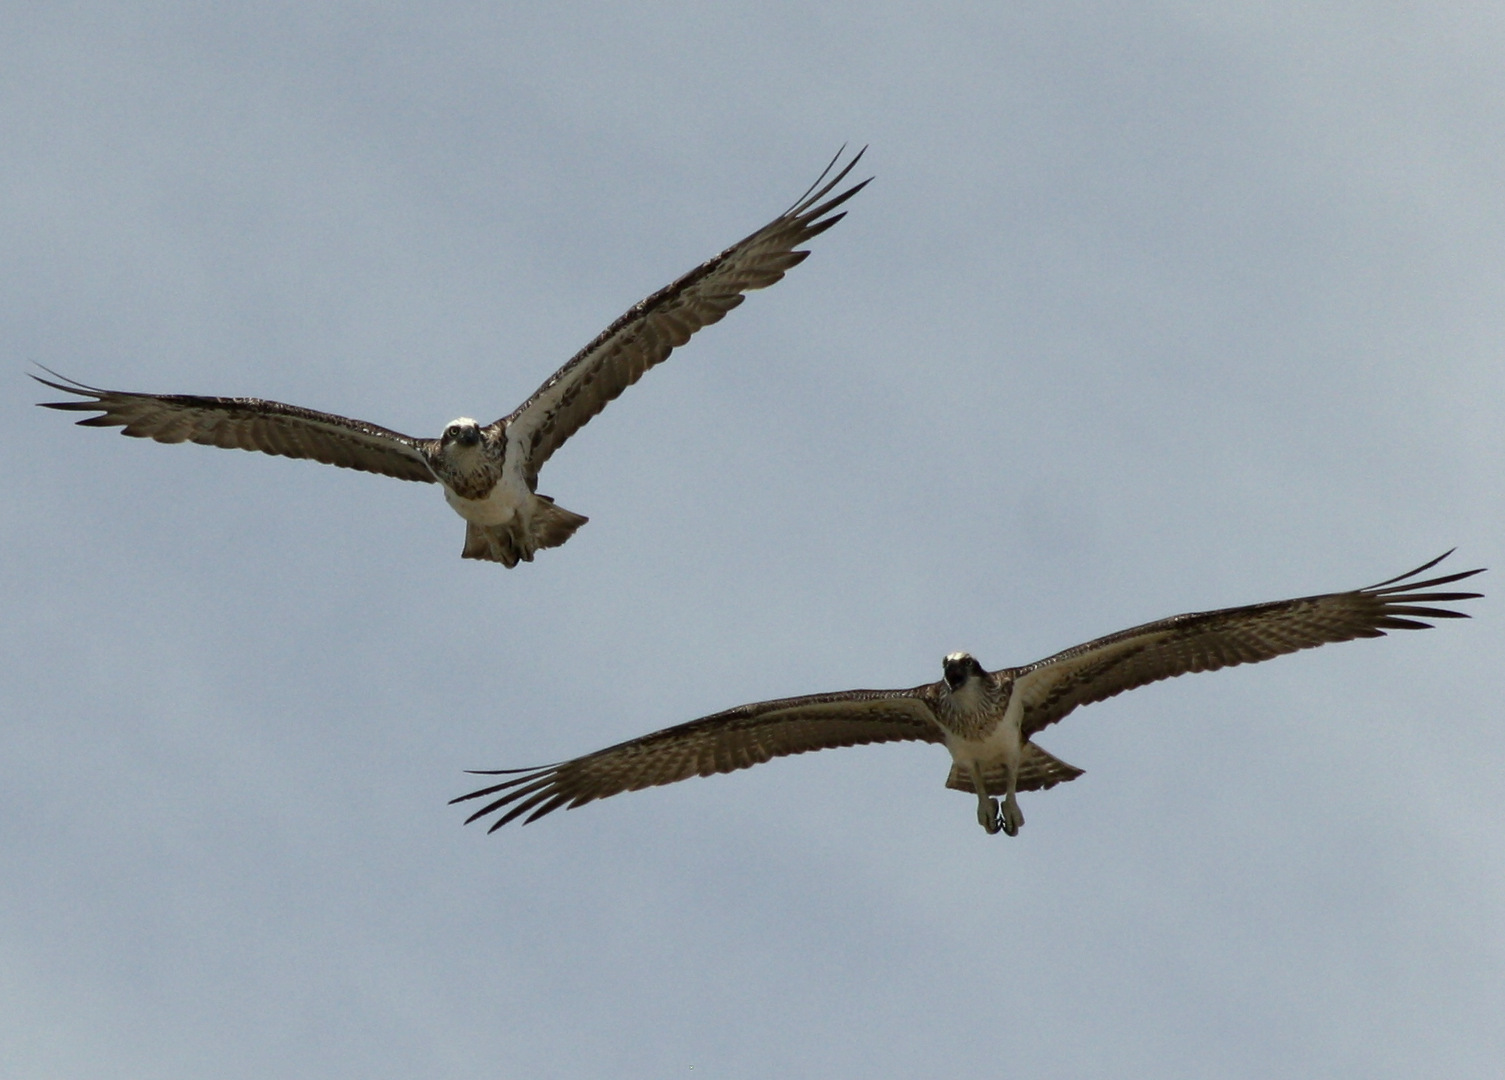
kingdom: Animalia
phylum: Chordata
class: Aves
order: Accipitriformes
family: Pandionidae
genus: Pandion
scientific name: Pandion cristatus
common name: Eastern osprey
